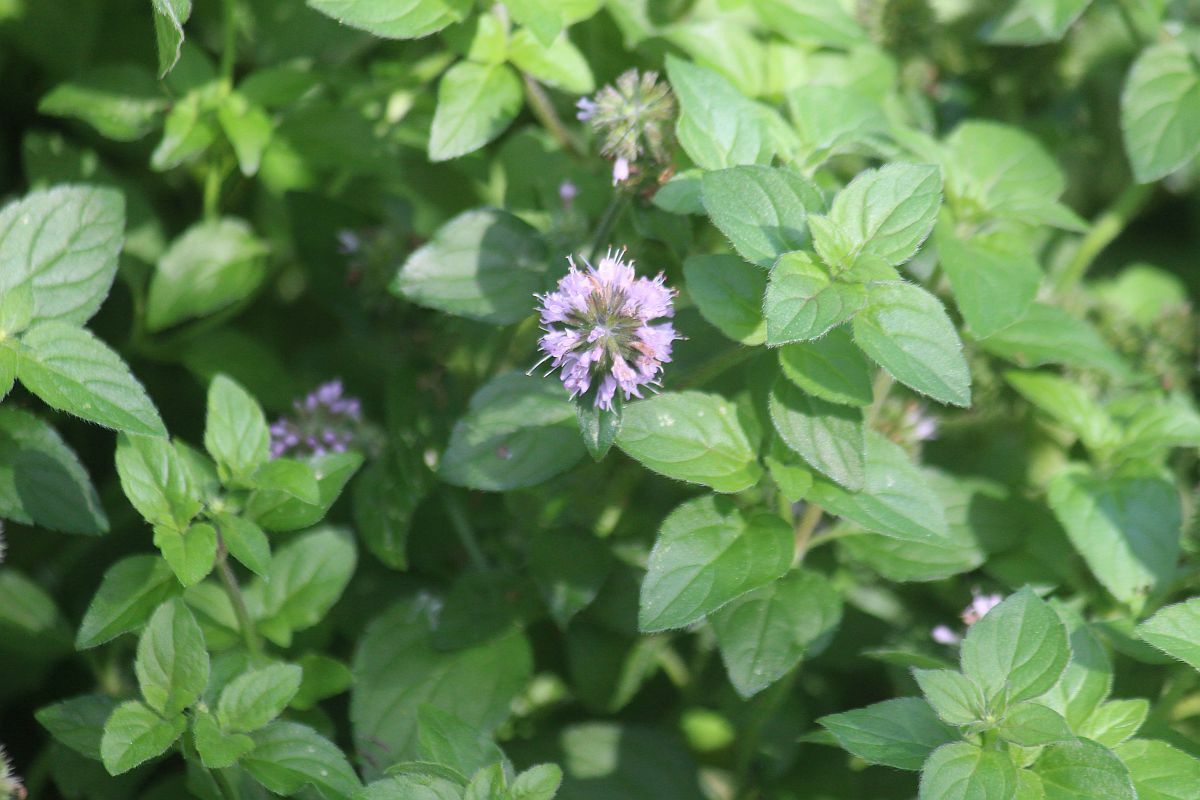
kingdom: Plantae
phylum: Tracheophyta
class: Magnoliopsida
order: Lamiales
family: Lamiaceae
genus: Mentha
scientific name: Mentha aquatica
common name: Water mint
